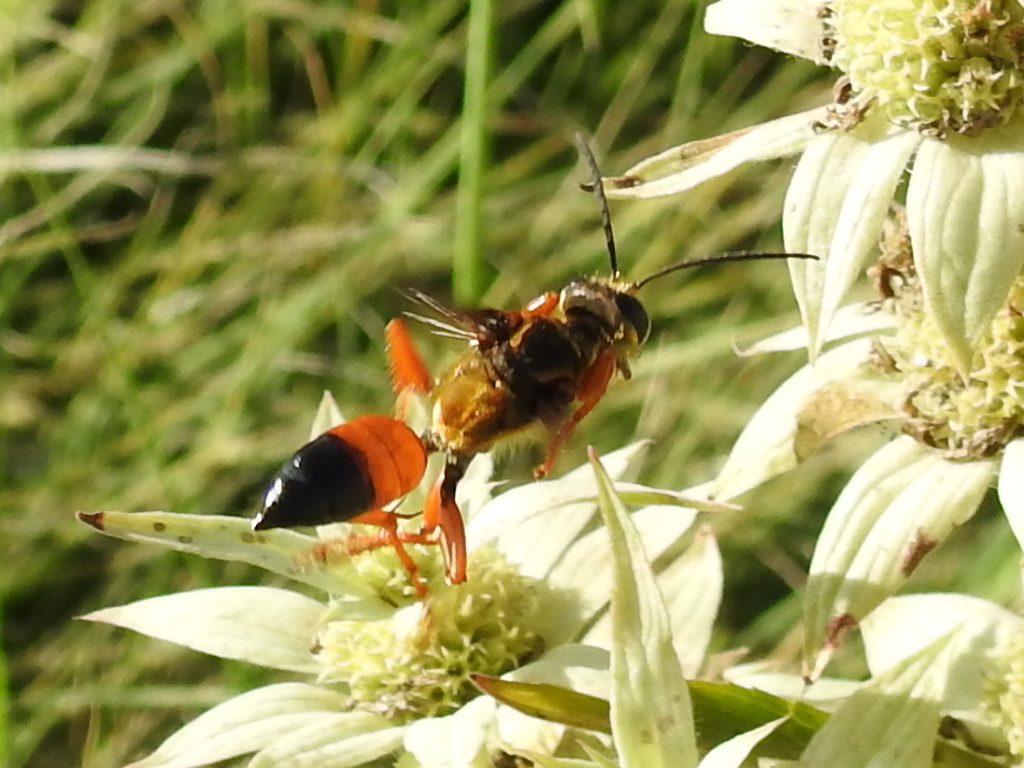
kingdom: Animalia
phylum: Arthropoda
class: Insecta
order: Hymenoptera
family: Sphecidae
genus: Sphex
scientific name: Sphex ichneumoneus
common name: Great golden digger wasp
